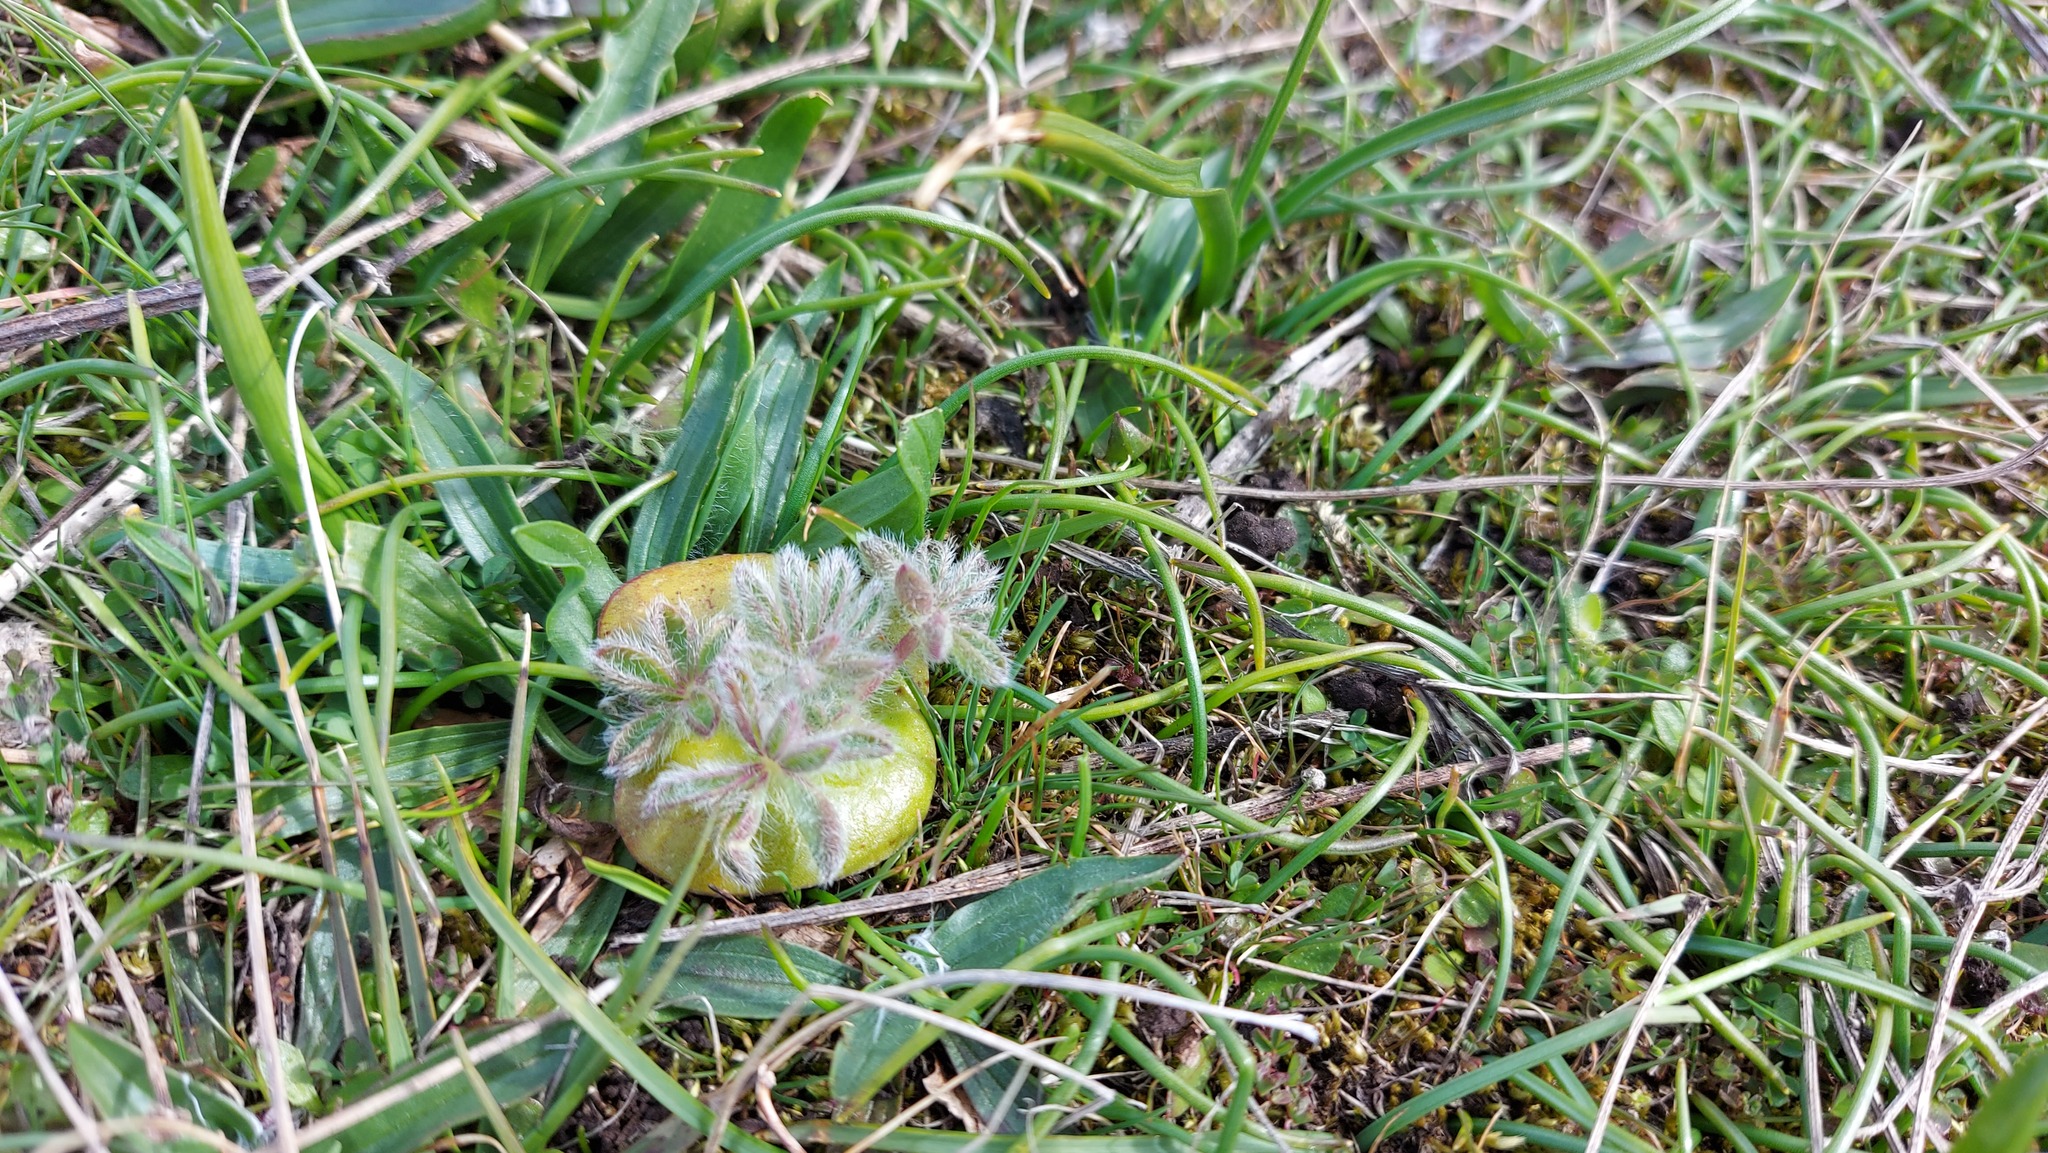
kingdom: Plantae
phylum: Tracheophyta
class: Magnoliopsida
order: Fabales
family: Fabaceae
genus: Lupinus
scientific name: Lupinus densiflorus
